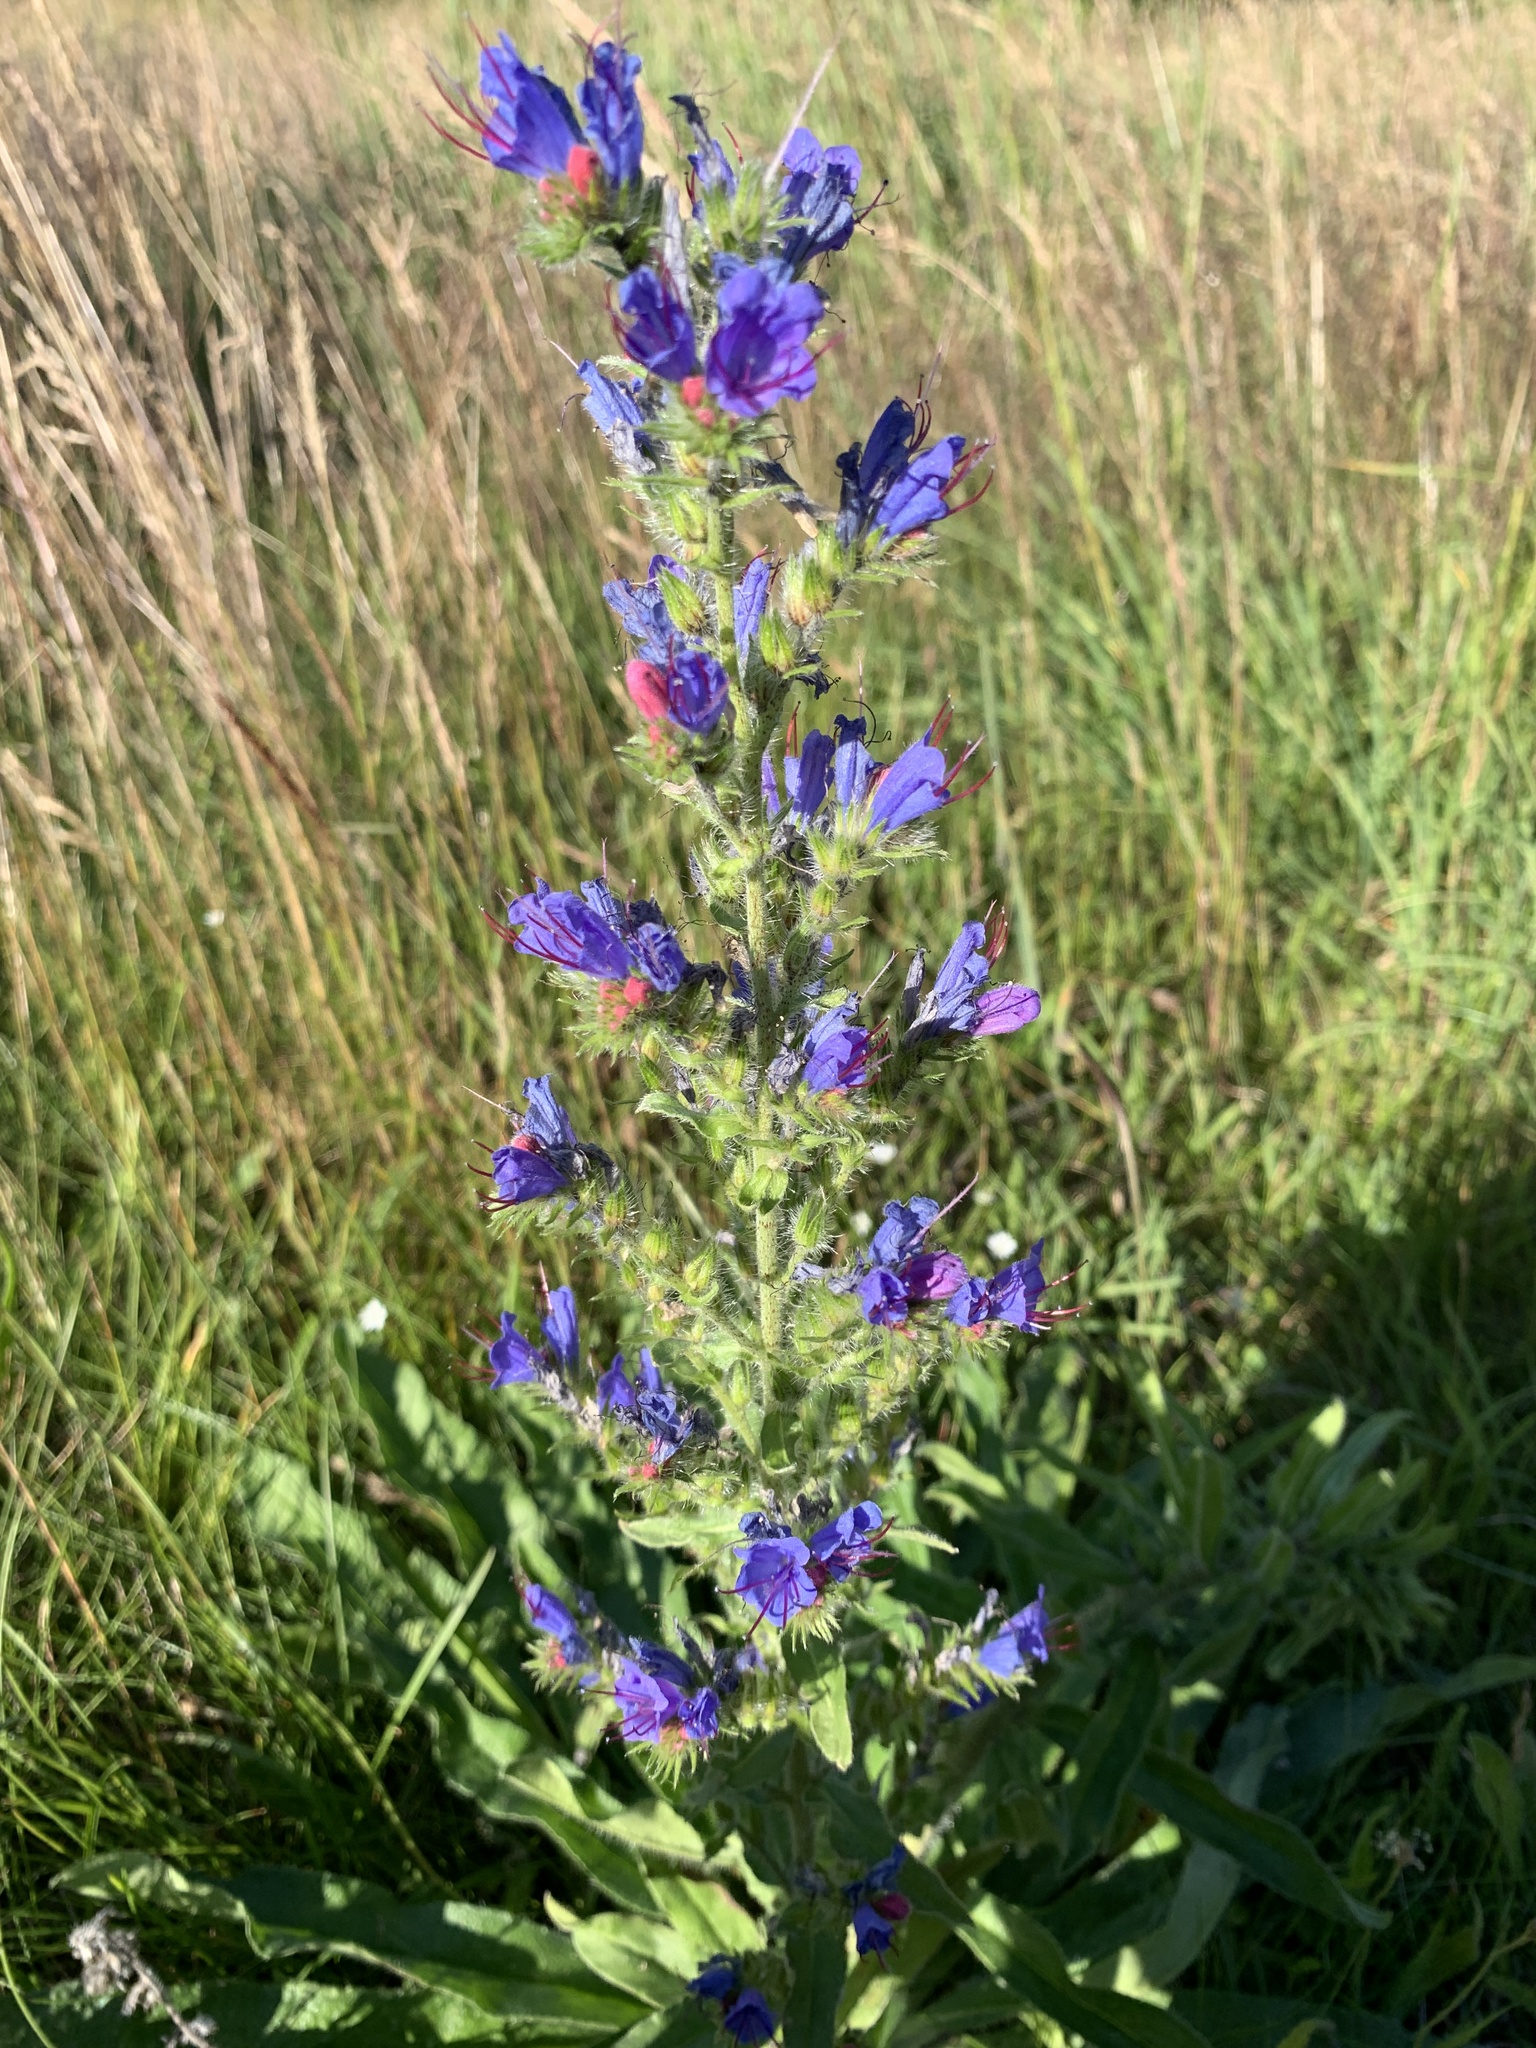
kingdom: Plantae
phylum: Tracheophyta
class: Magnoliopsida
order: Boraginales
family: Boraginaceae
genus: Echium
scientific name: Echium vulgare
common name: Common viper's bugloss
